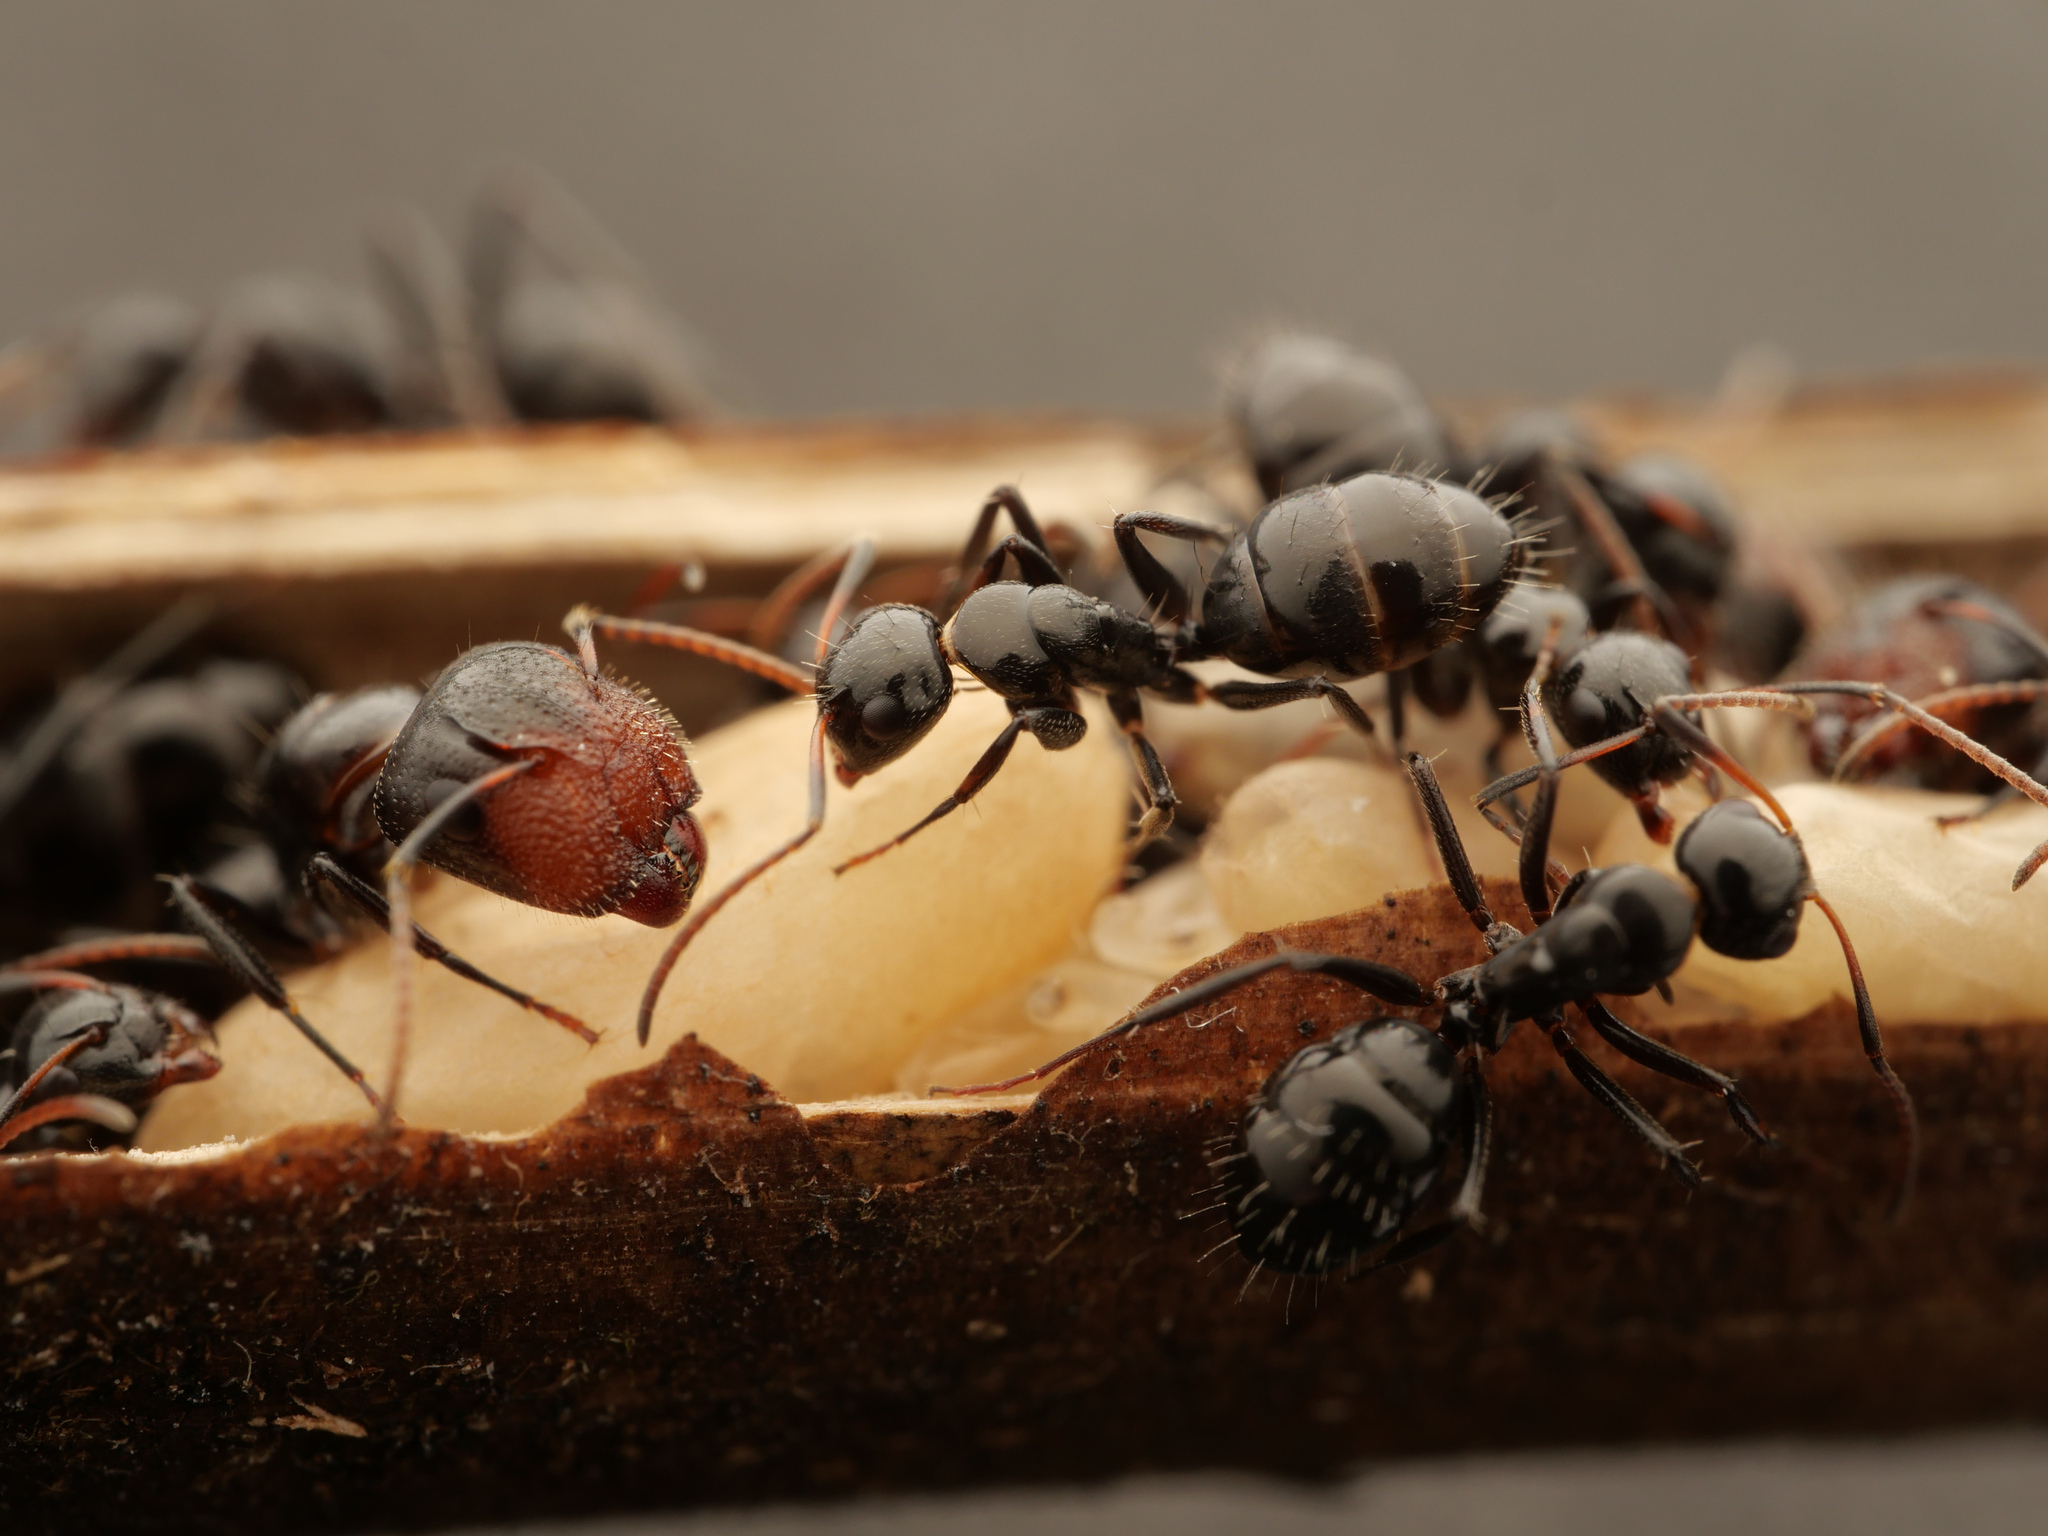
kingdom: Animalia
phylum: Arthropoda
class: Insecta
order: Hymenoptera
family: Formicidae
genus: Camponotus
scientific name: Camponotus albocinctus
